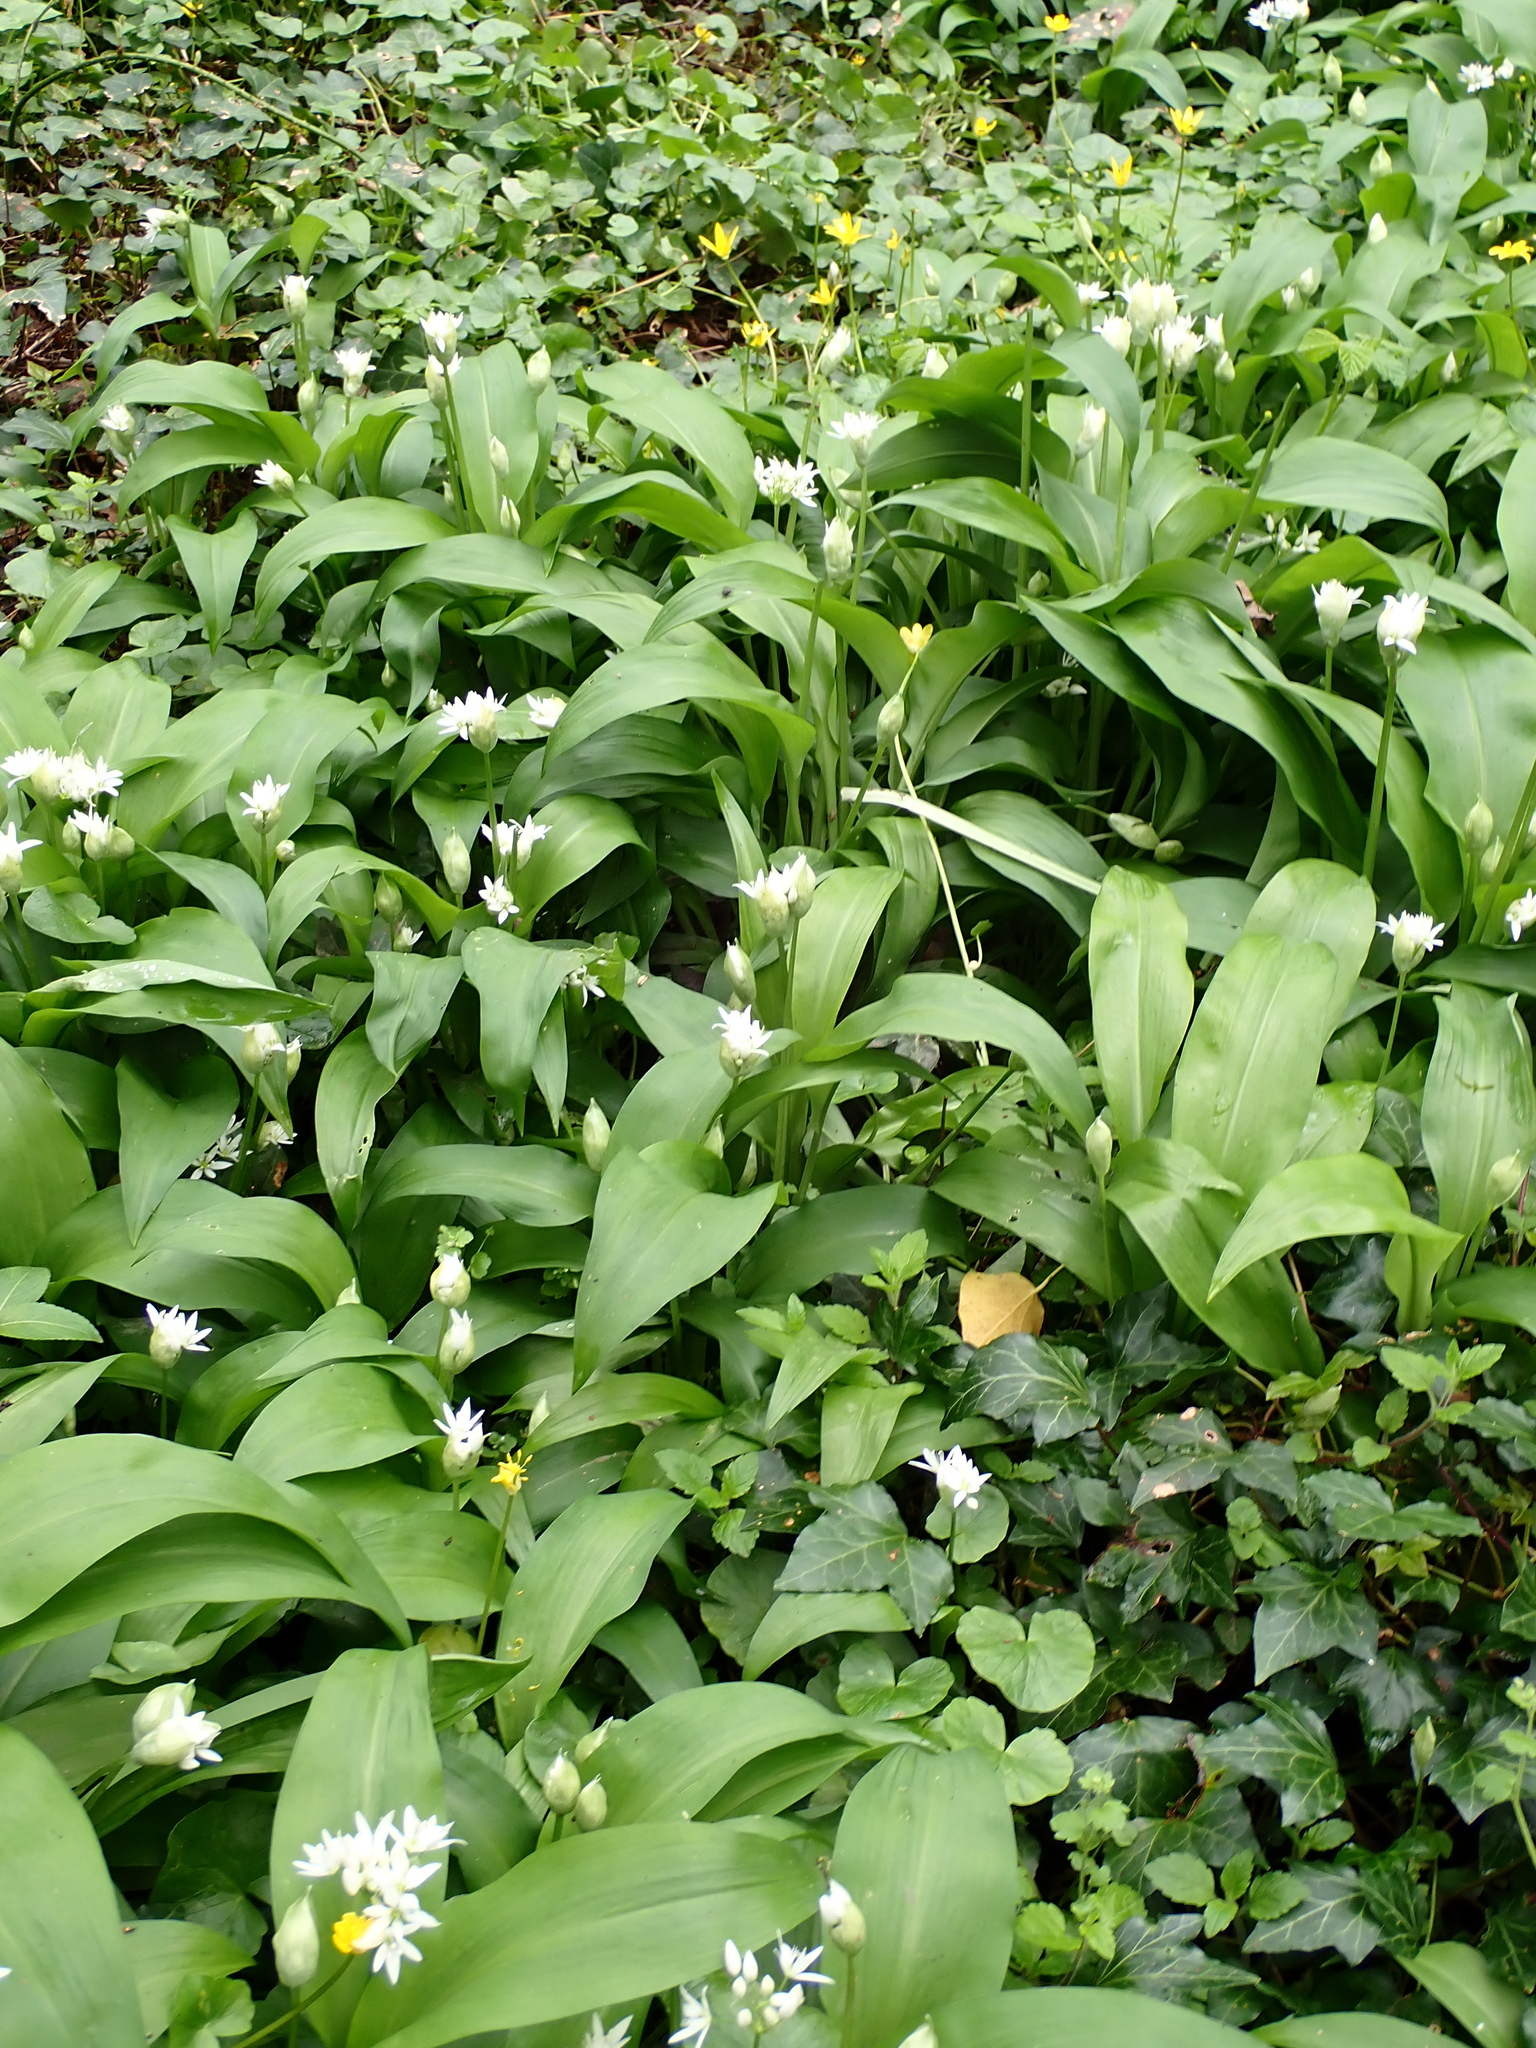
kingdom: Plantae
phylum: Tracheophyta
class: Liliopsida
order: Asparagales
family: Amaryllidaceae
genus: Allium
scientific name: Allium ursinum
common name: Ramsons
